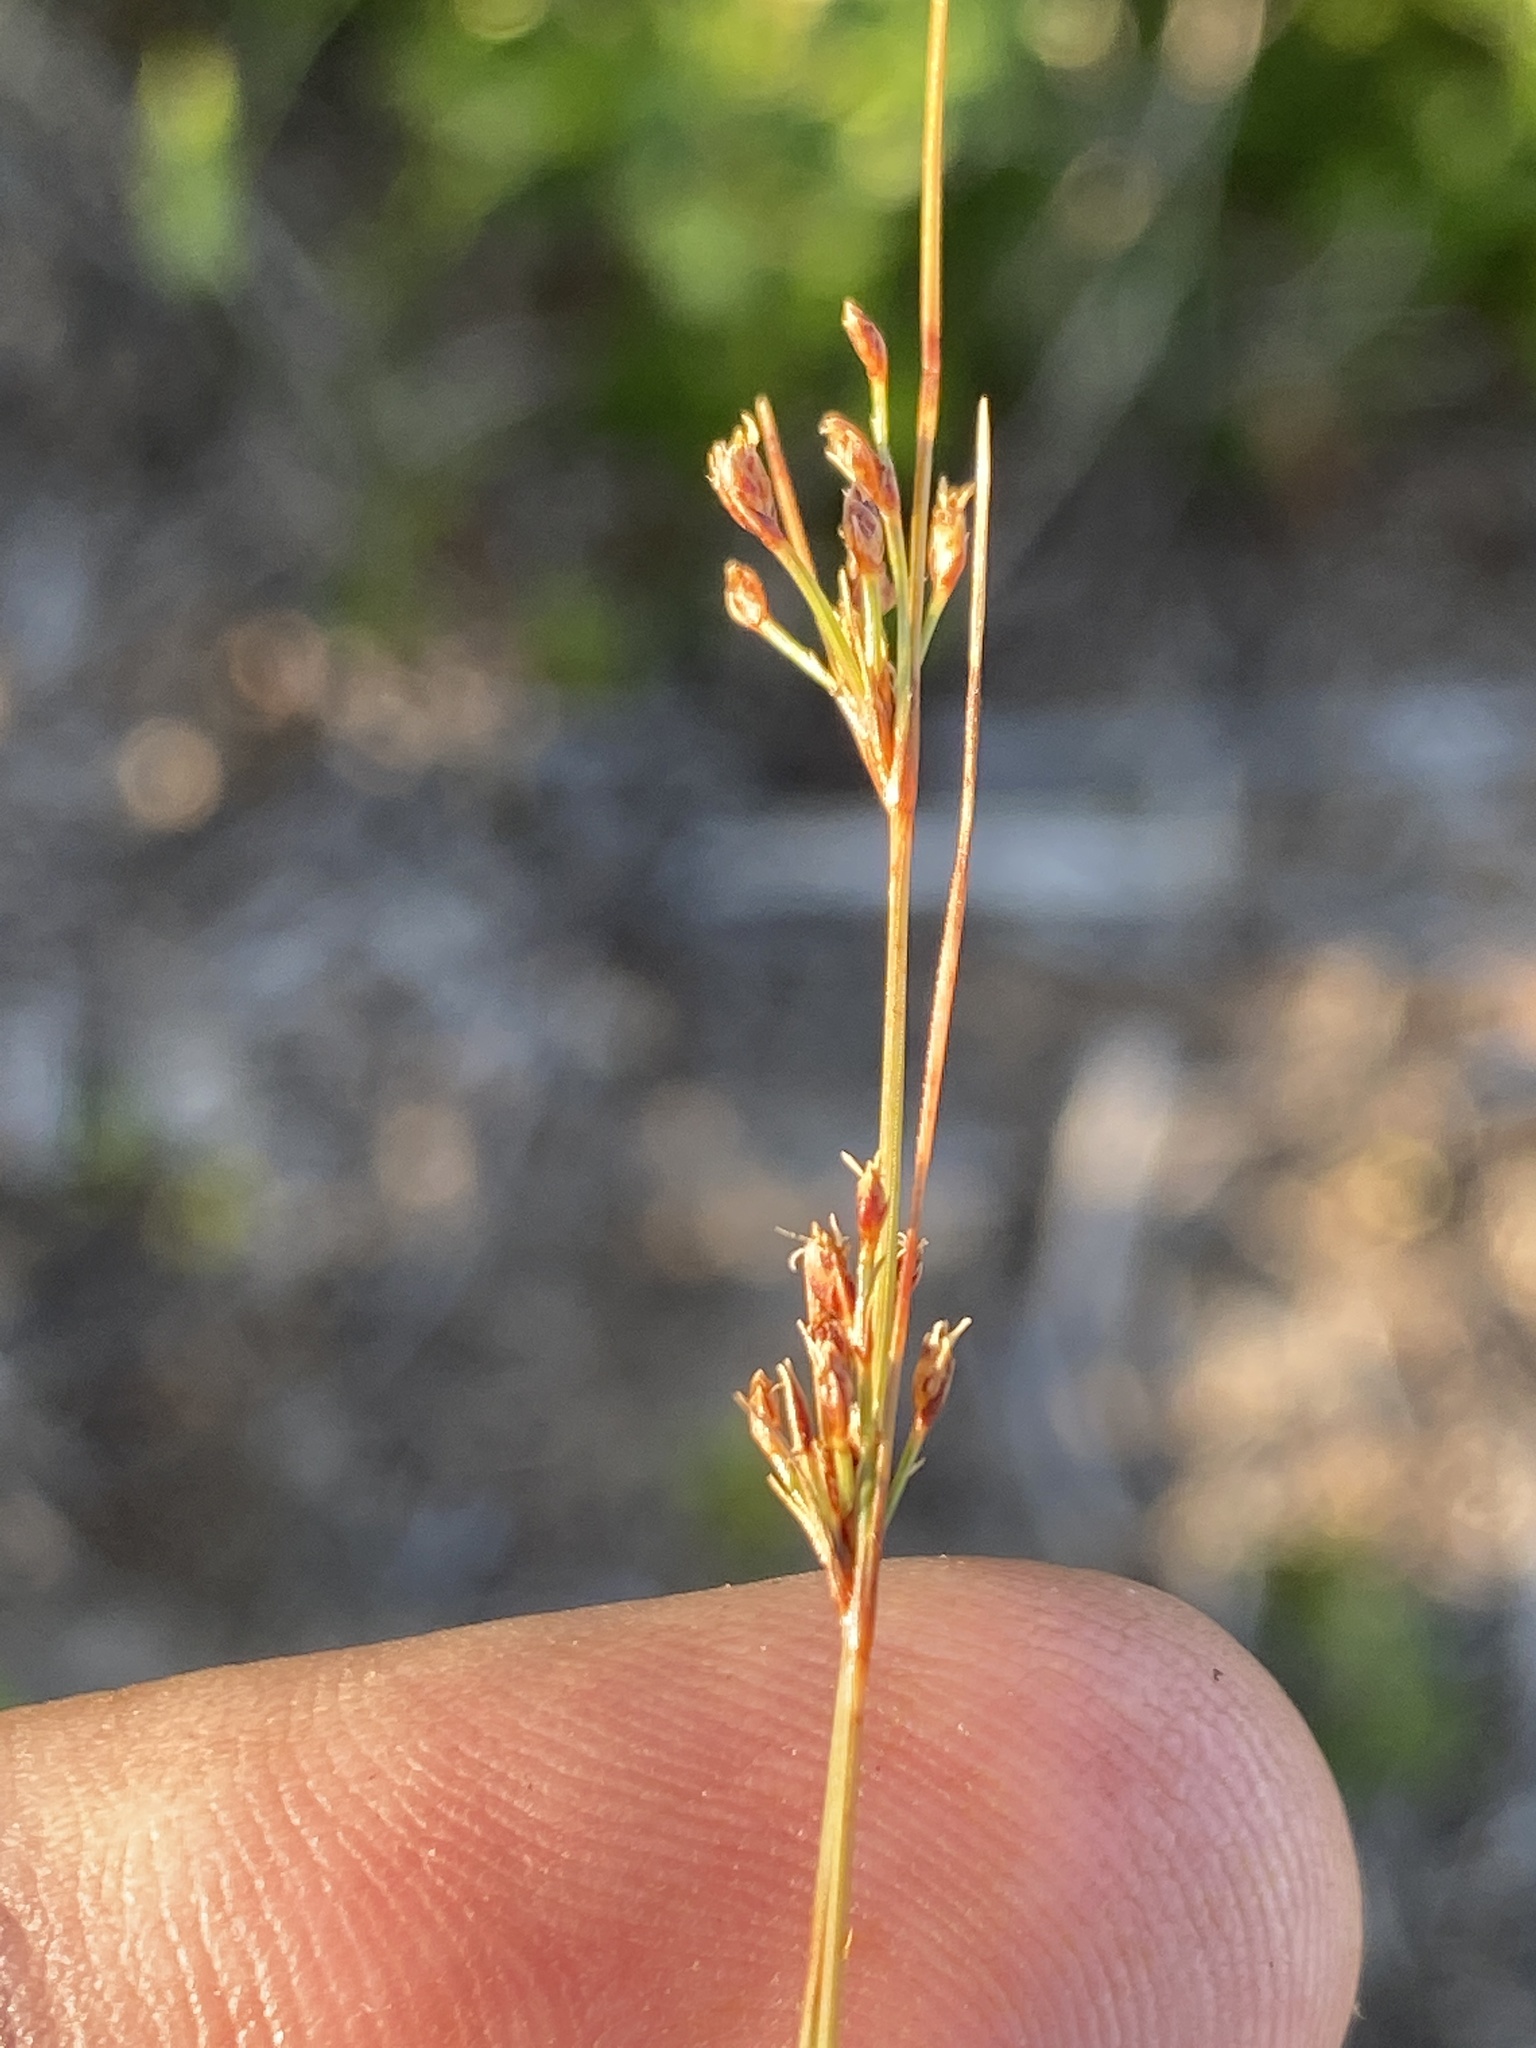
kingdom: Plantae
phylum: Tracheophyta
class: Liliopsida
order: Poales
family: Cyperaceae
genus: Bulbostylis
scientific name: Bulbostylis ciliatifolia
